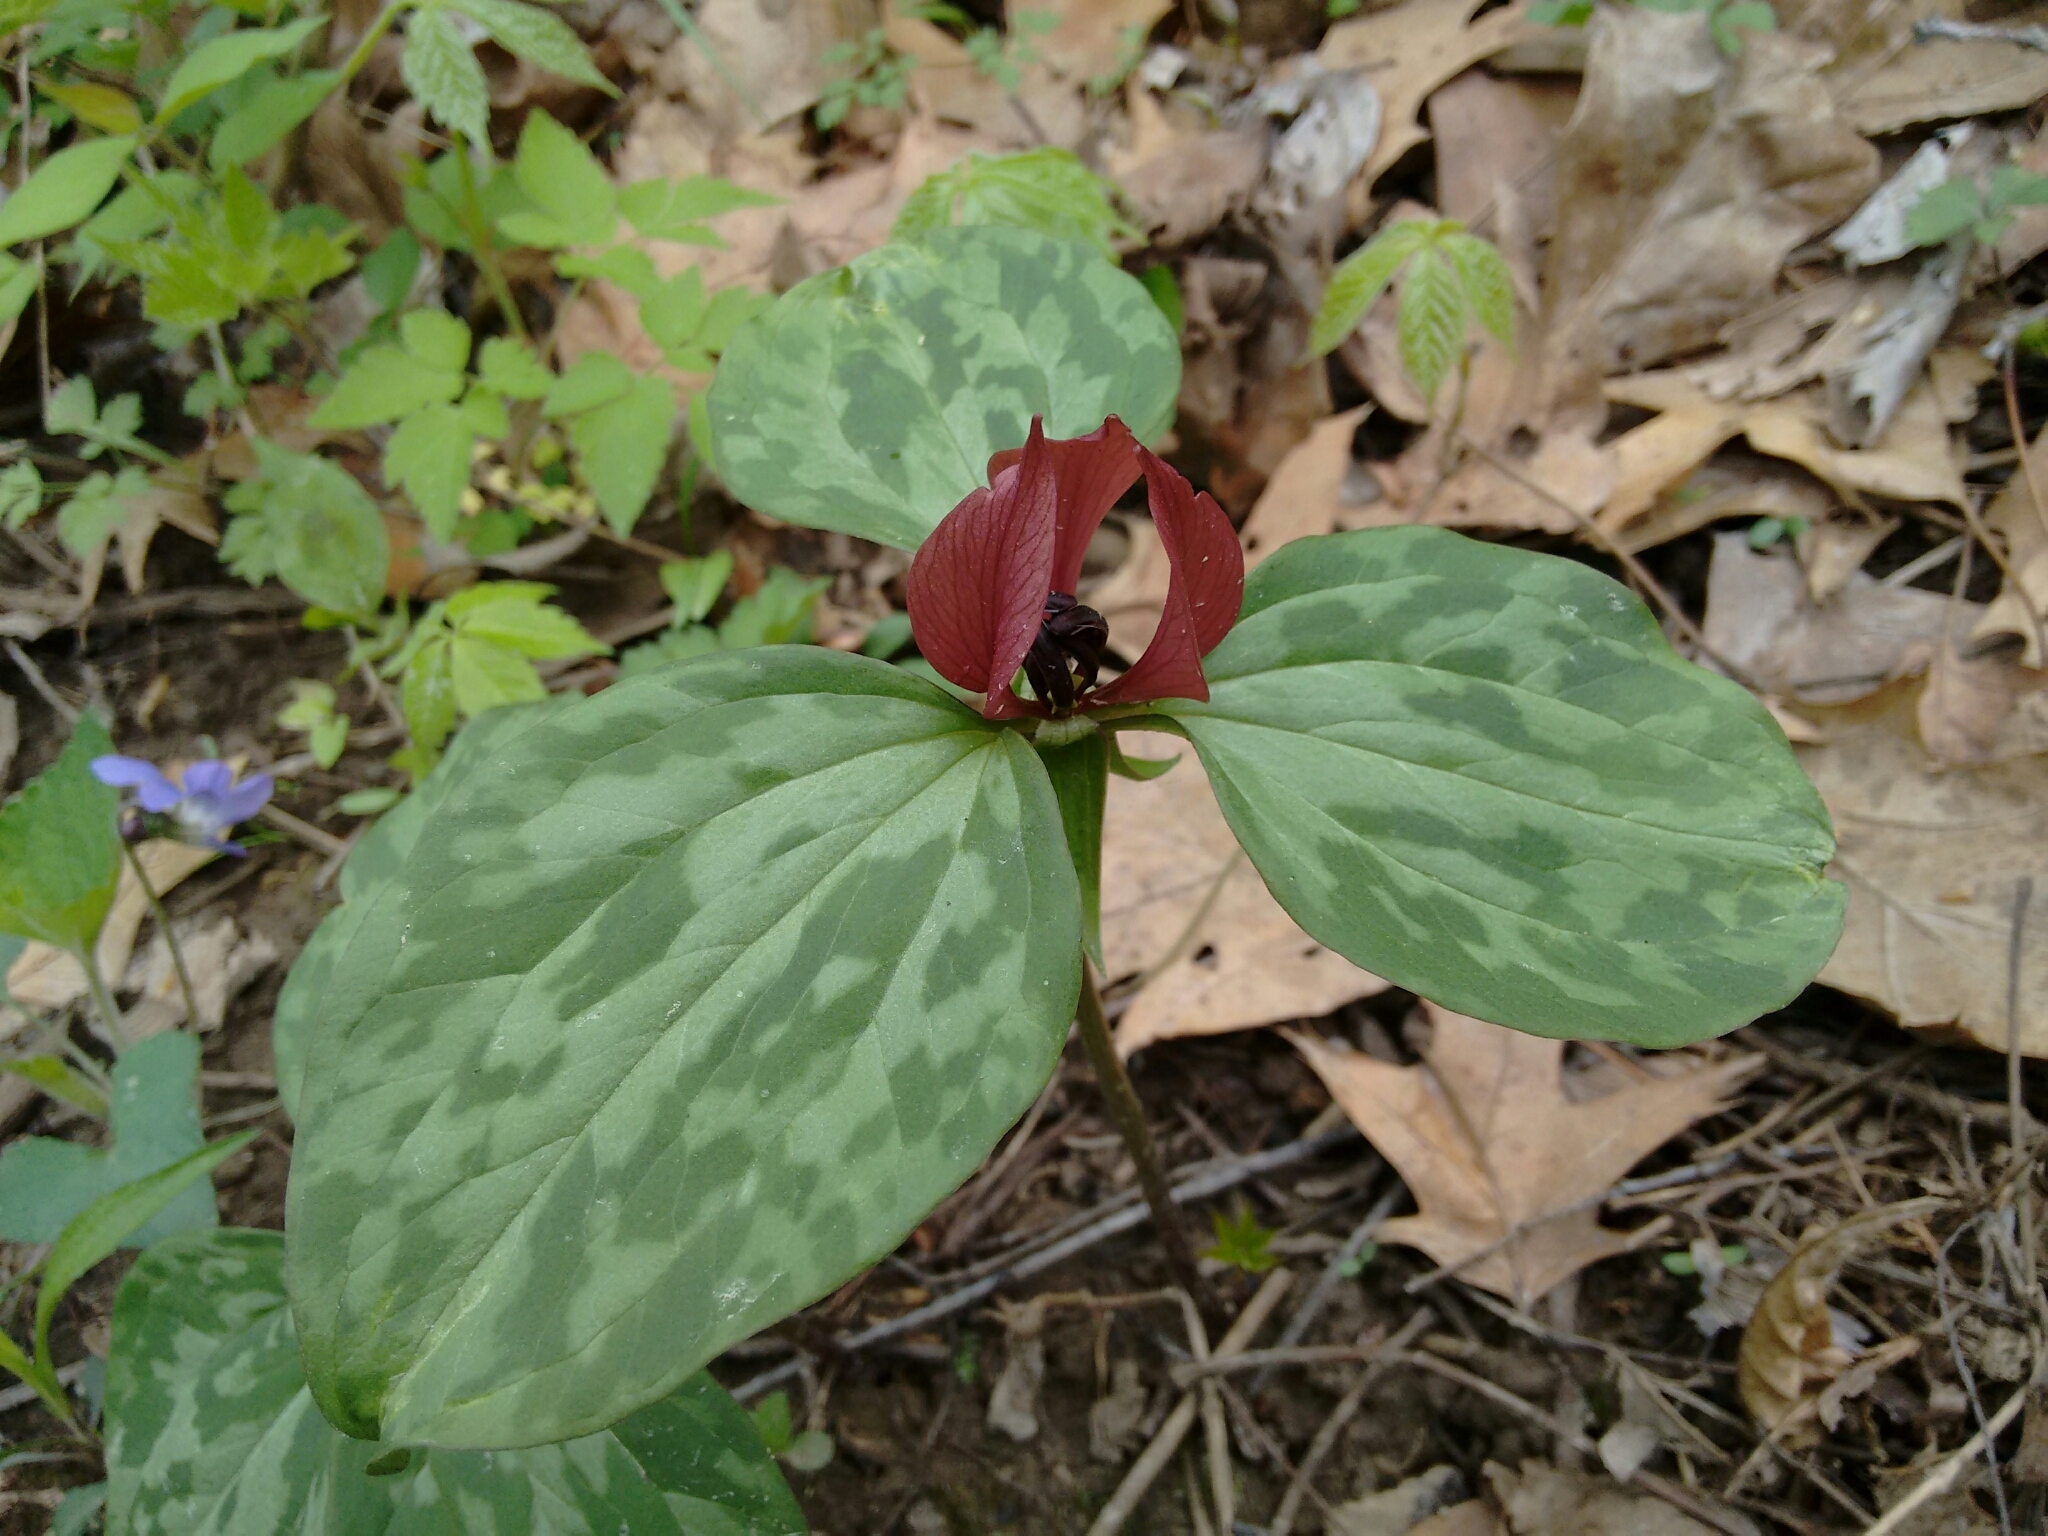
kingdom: Plantae
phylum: Tracheophyta
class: Liliopsida
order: Liliales
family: Melanthiaceae
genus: Trillium
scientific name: Trillium recurvatum
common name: Bloody butcher
